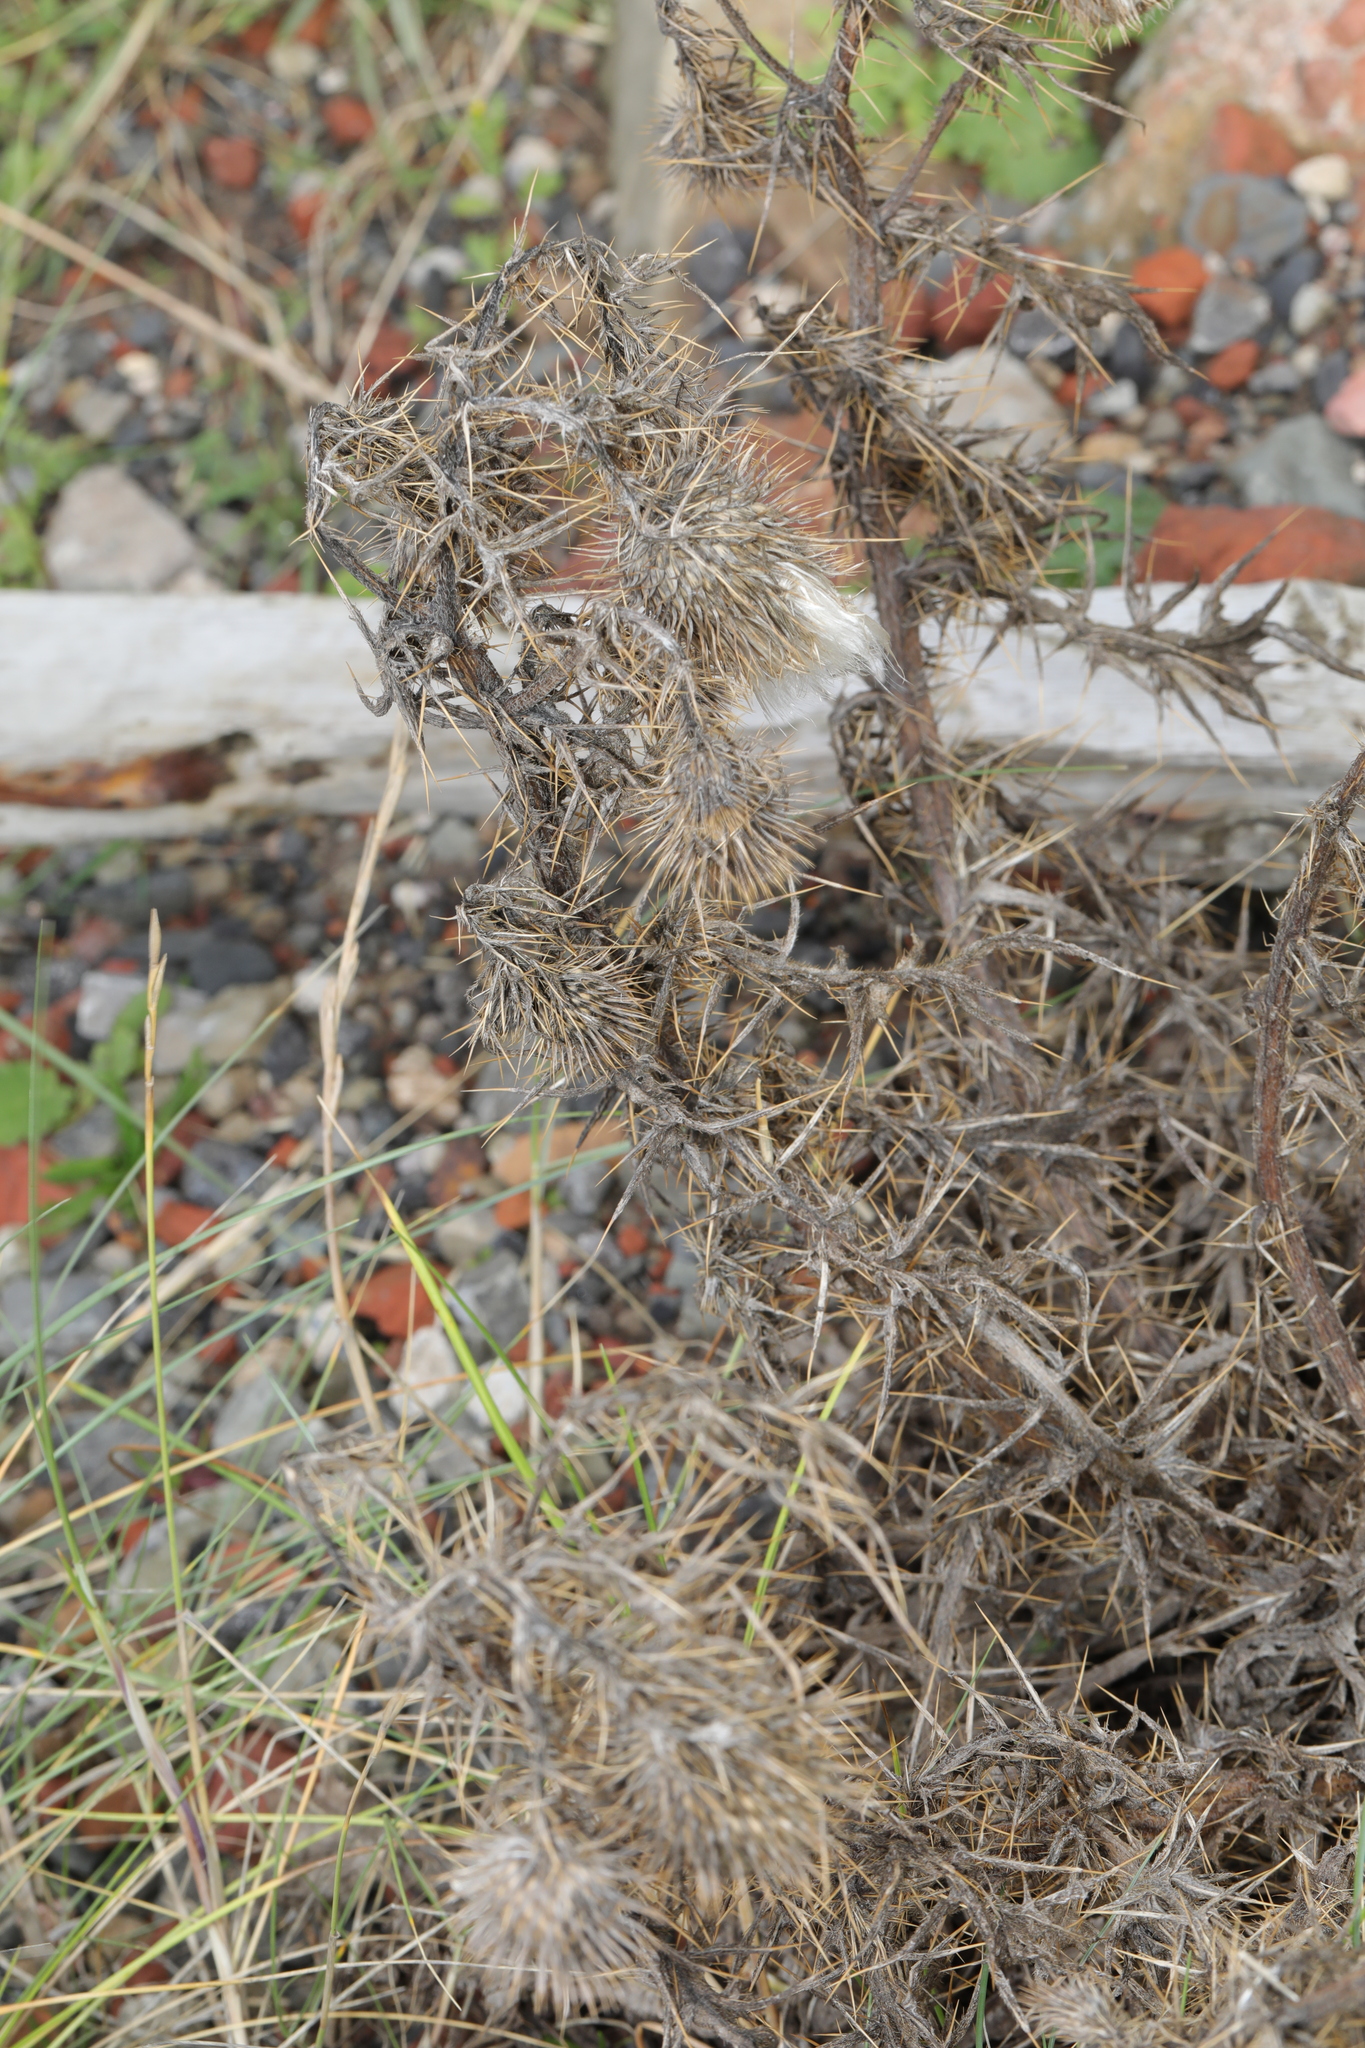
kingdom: Plantae
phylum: Tracheophyta
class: Magnoliopsida
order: Asterales
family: Asteraceae
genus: Cirsium
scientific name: Cirsium vulgare
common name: Bull thistle
